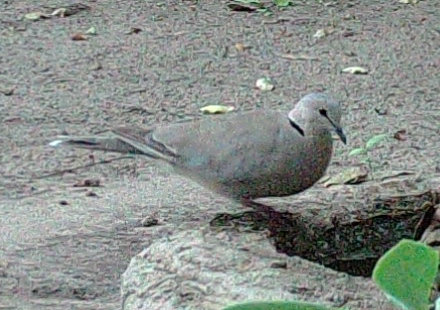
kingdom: Animalia
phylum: Chordata
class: Aves
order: Columbiformes
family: Columbidae
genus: Streptopelia
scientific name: Streptopelia capicola
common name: Ring-necked dove
